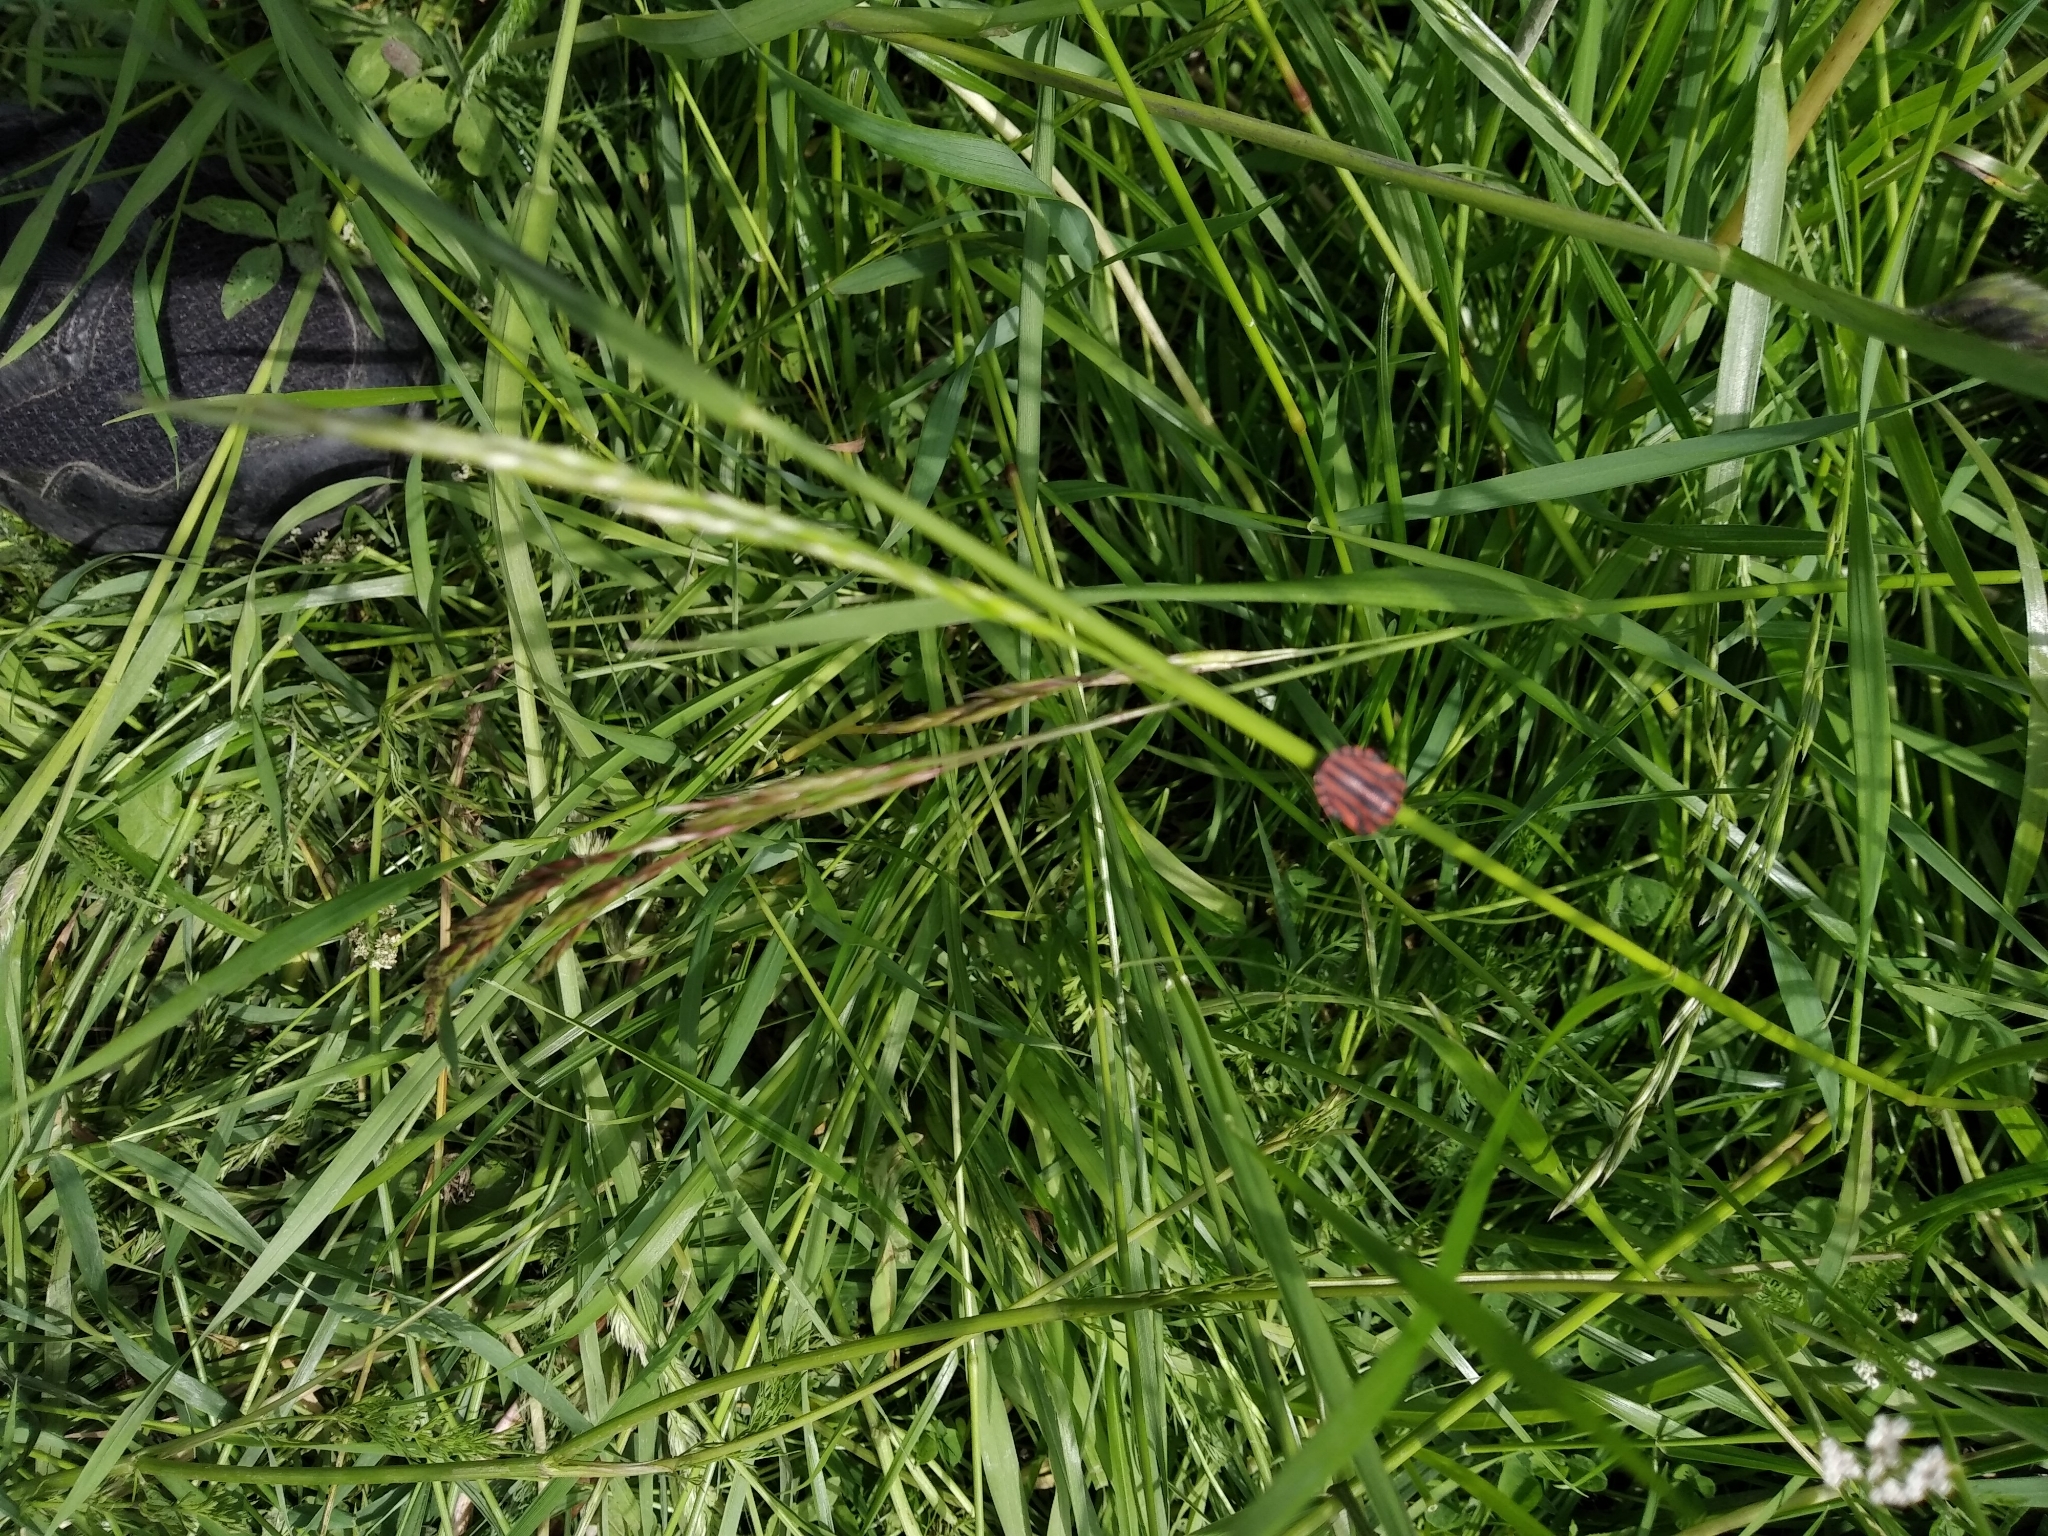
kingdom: Animalia
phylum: Arthropoda
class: Insecta
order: Hemiptera
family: Pentatomidae
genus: Graphosoma
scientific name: Graphosoma italicum
